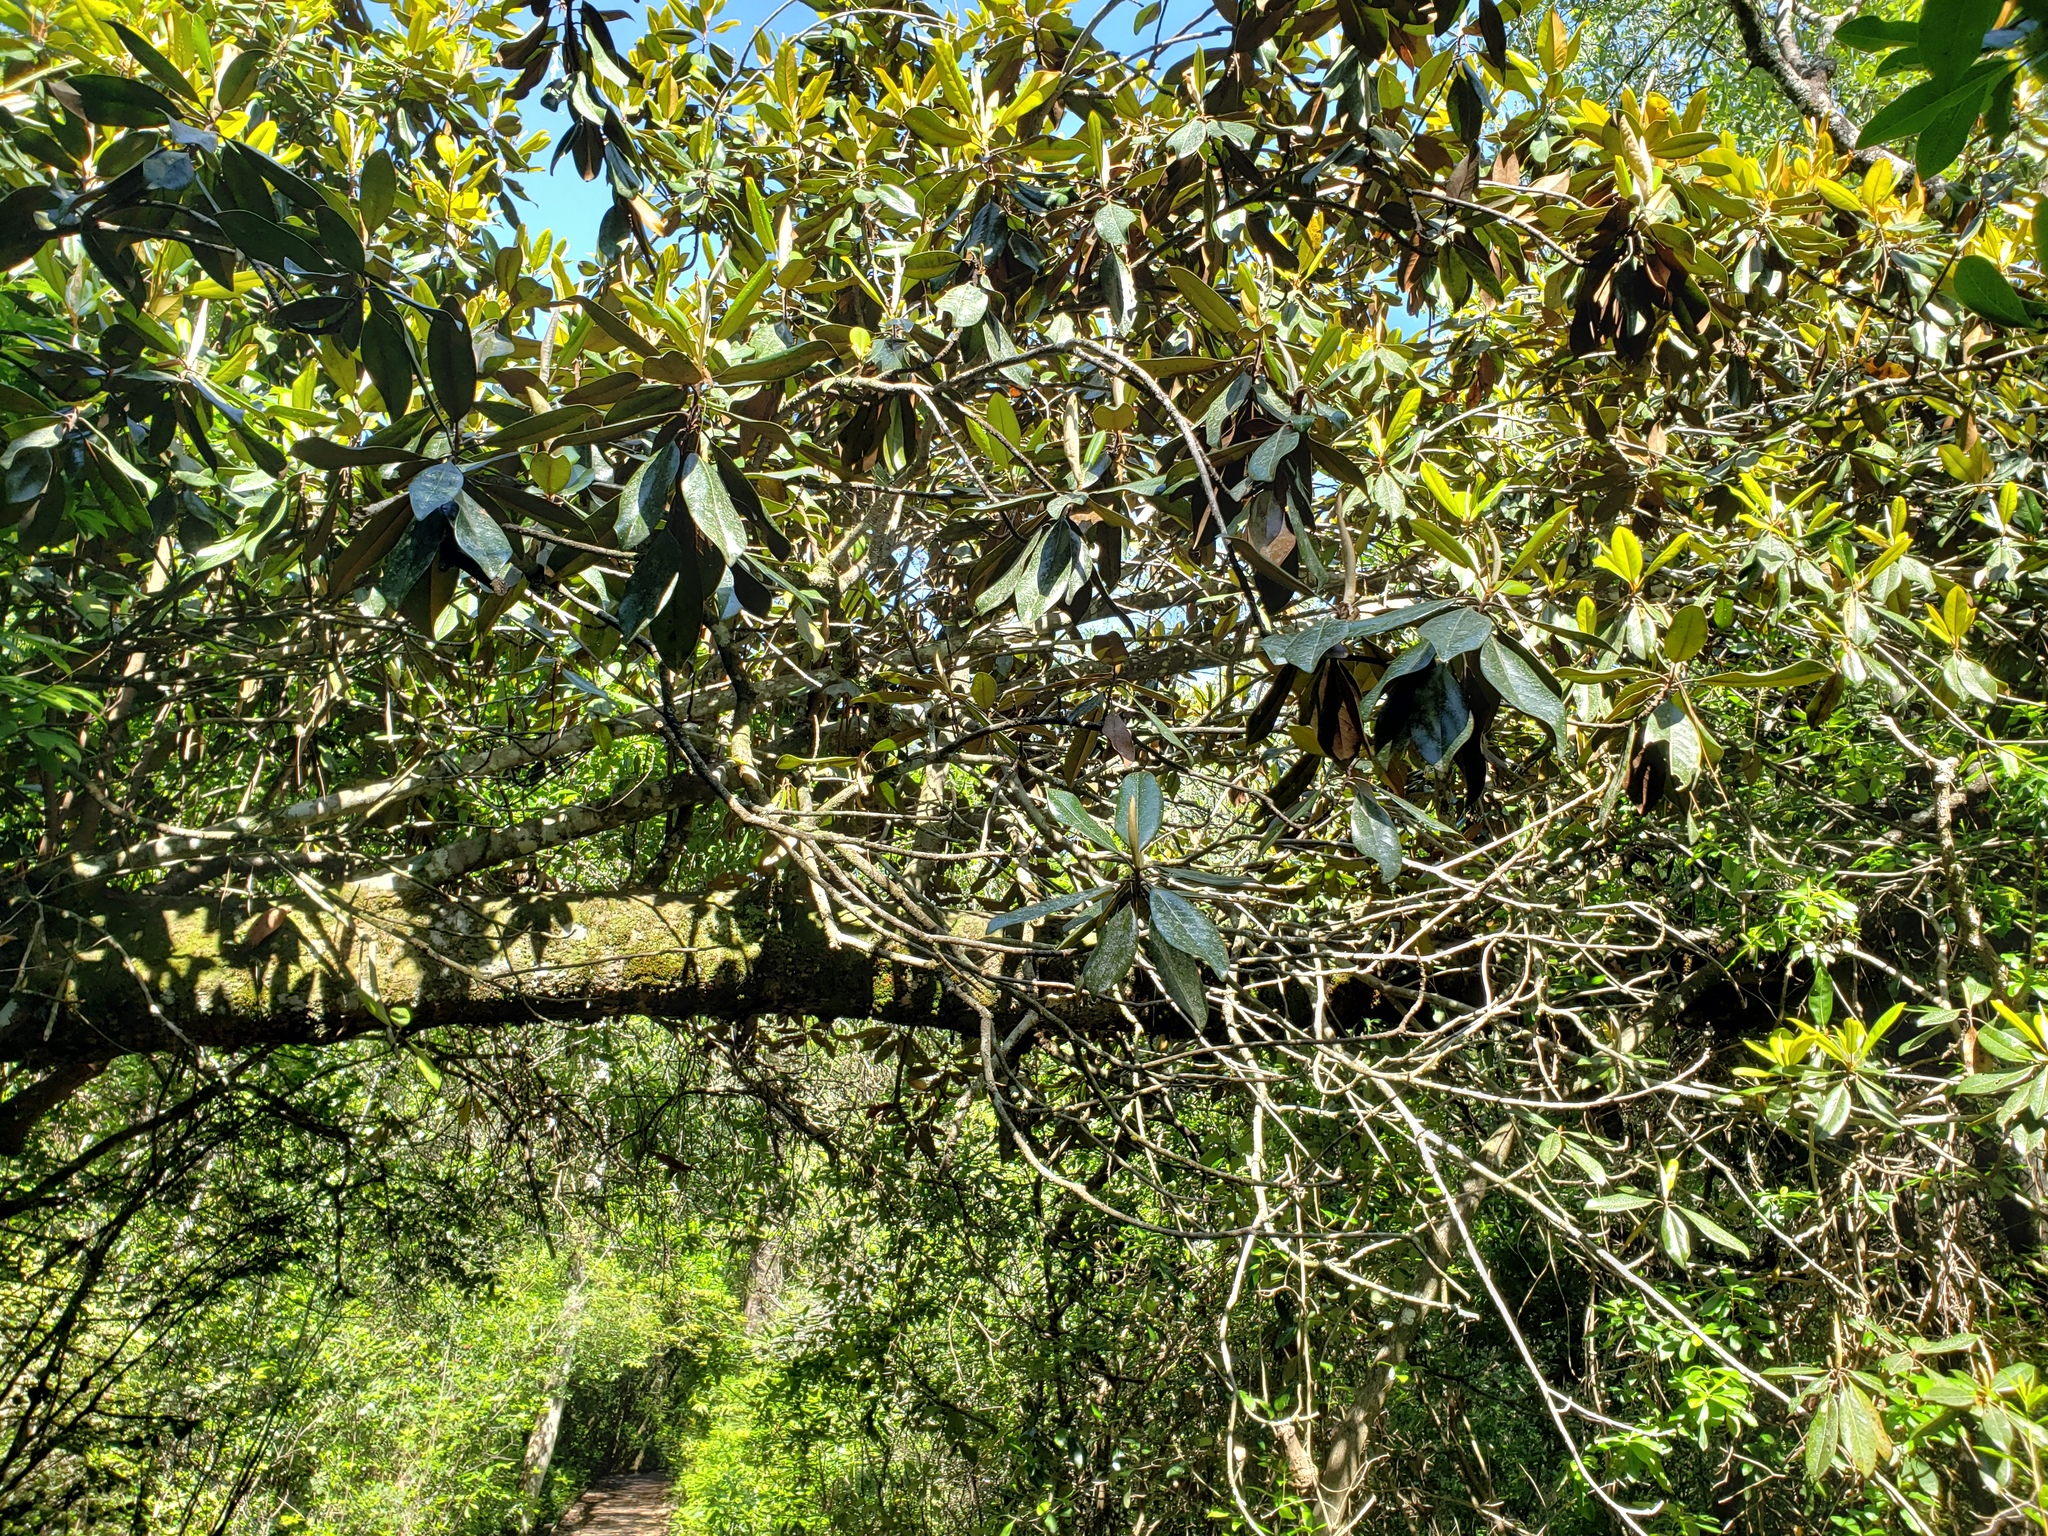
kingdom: Plantae
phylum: Tracheophyta
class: Magnoliopsida
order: Magnoliales
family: Magnoliaceae
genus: Magnolia
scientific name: Magnolia grandiflora
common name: Southern magnolia
